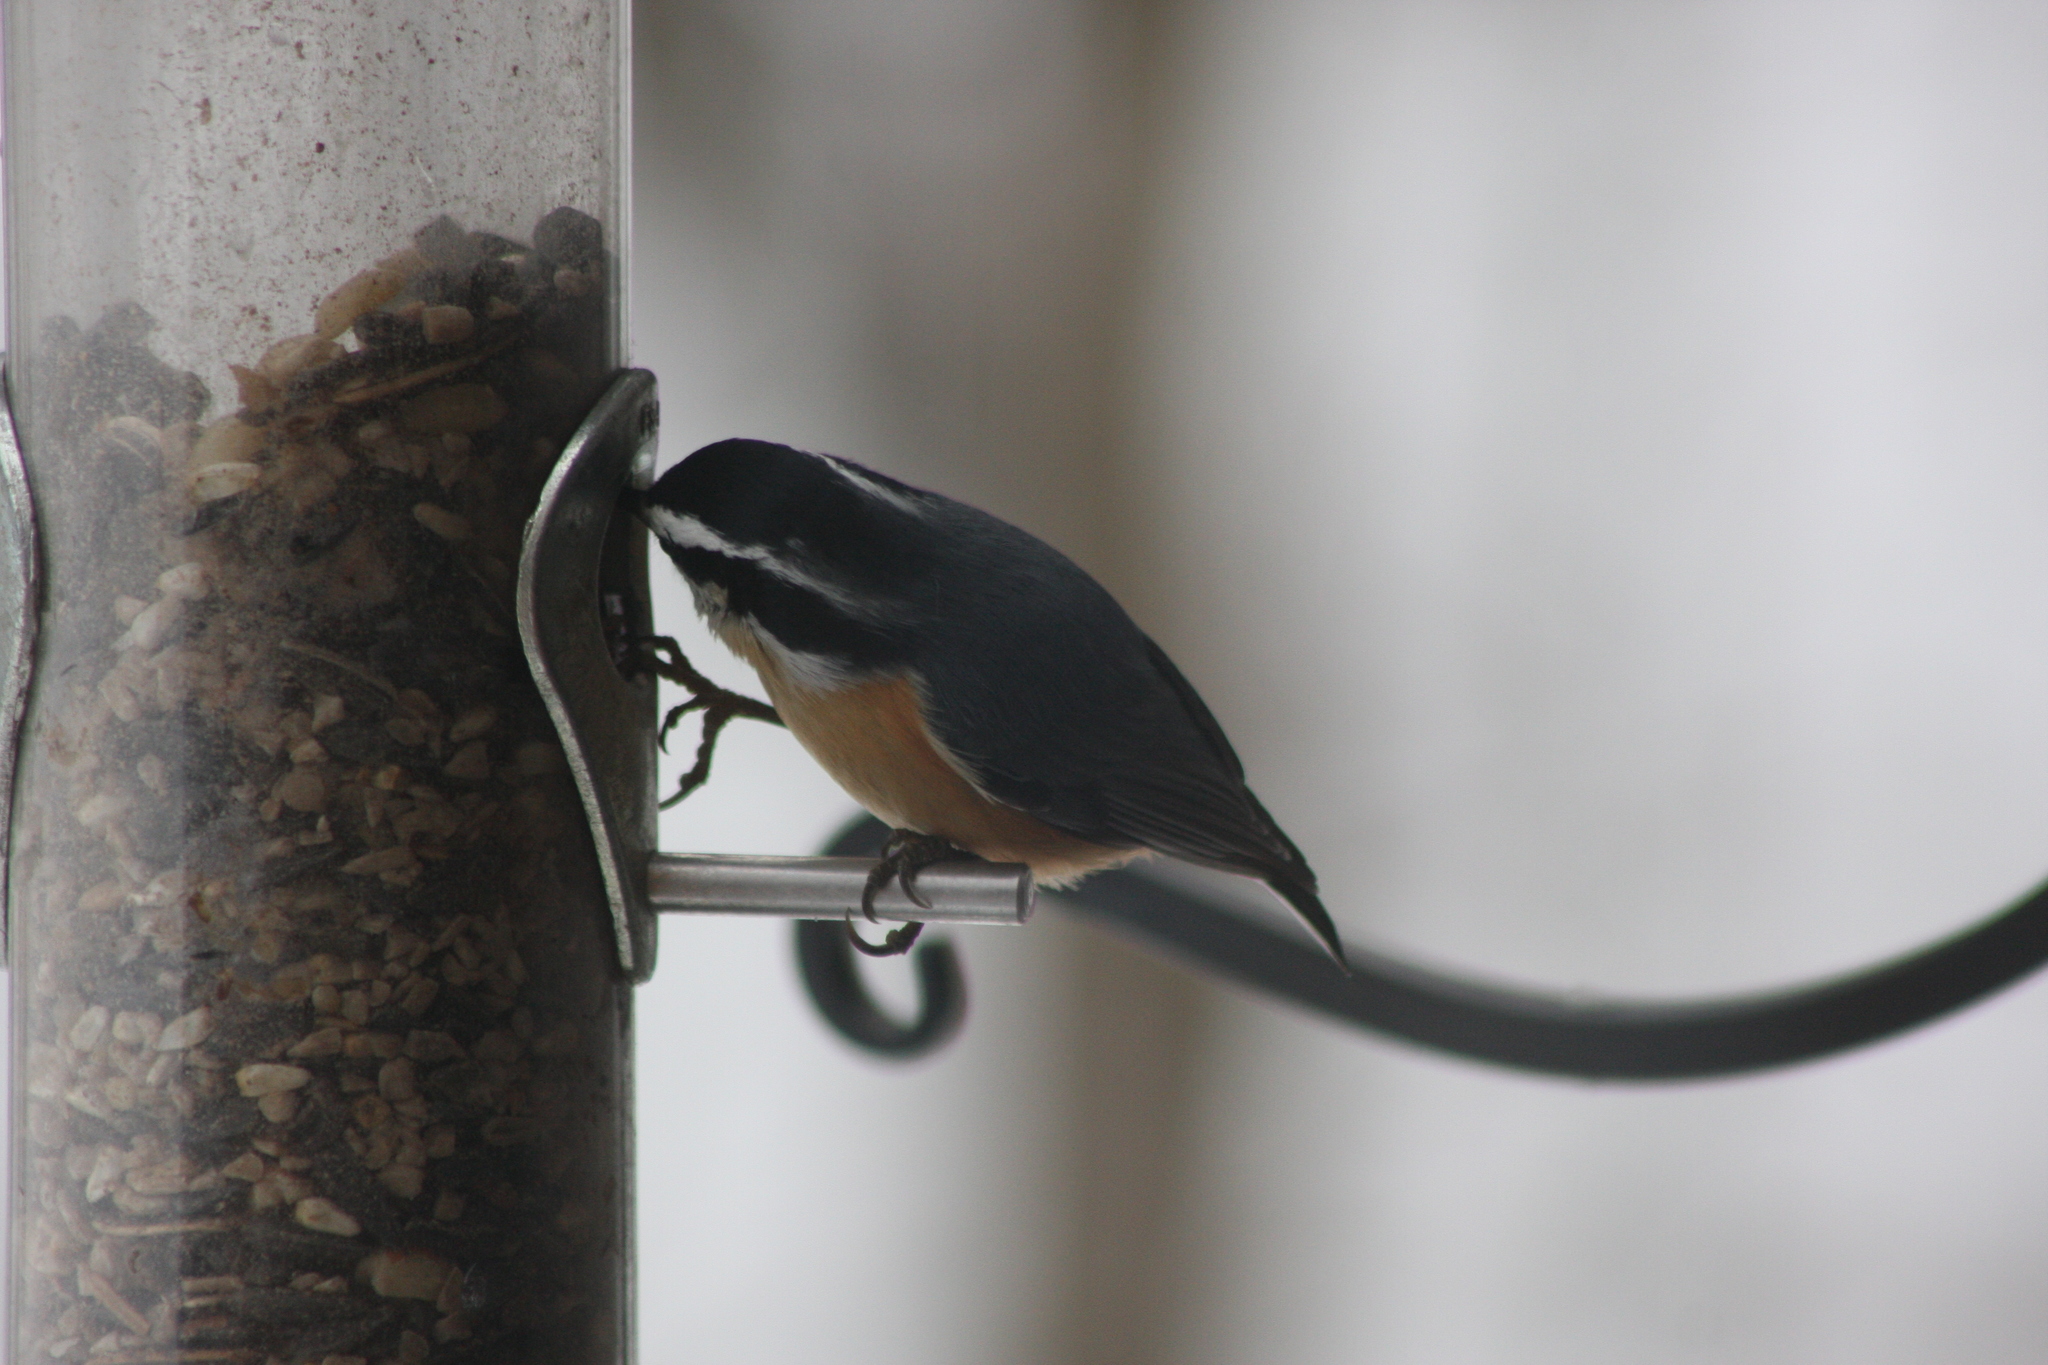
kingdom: Animalia
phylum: Chordata
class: Aves
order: Passeriformes
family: Sittidae
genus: Sitta
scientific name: Sitta canadensis
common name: Red-breasted nuthatch
